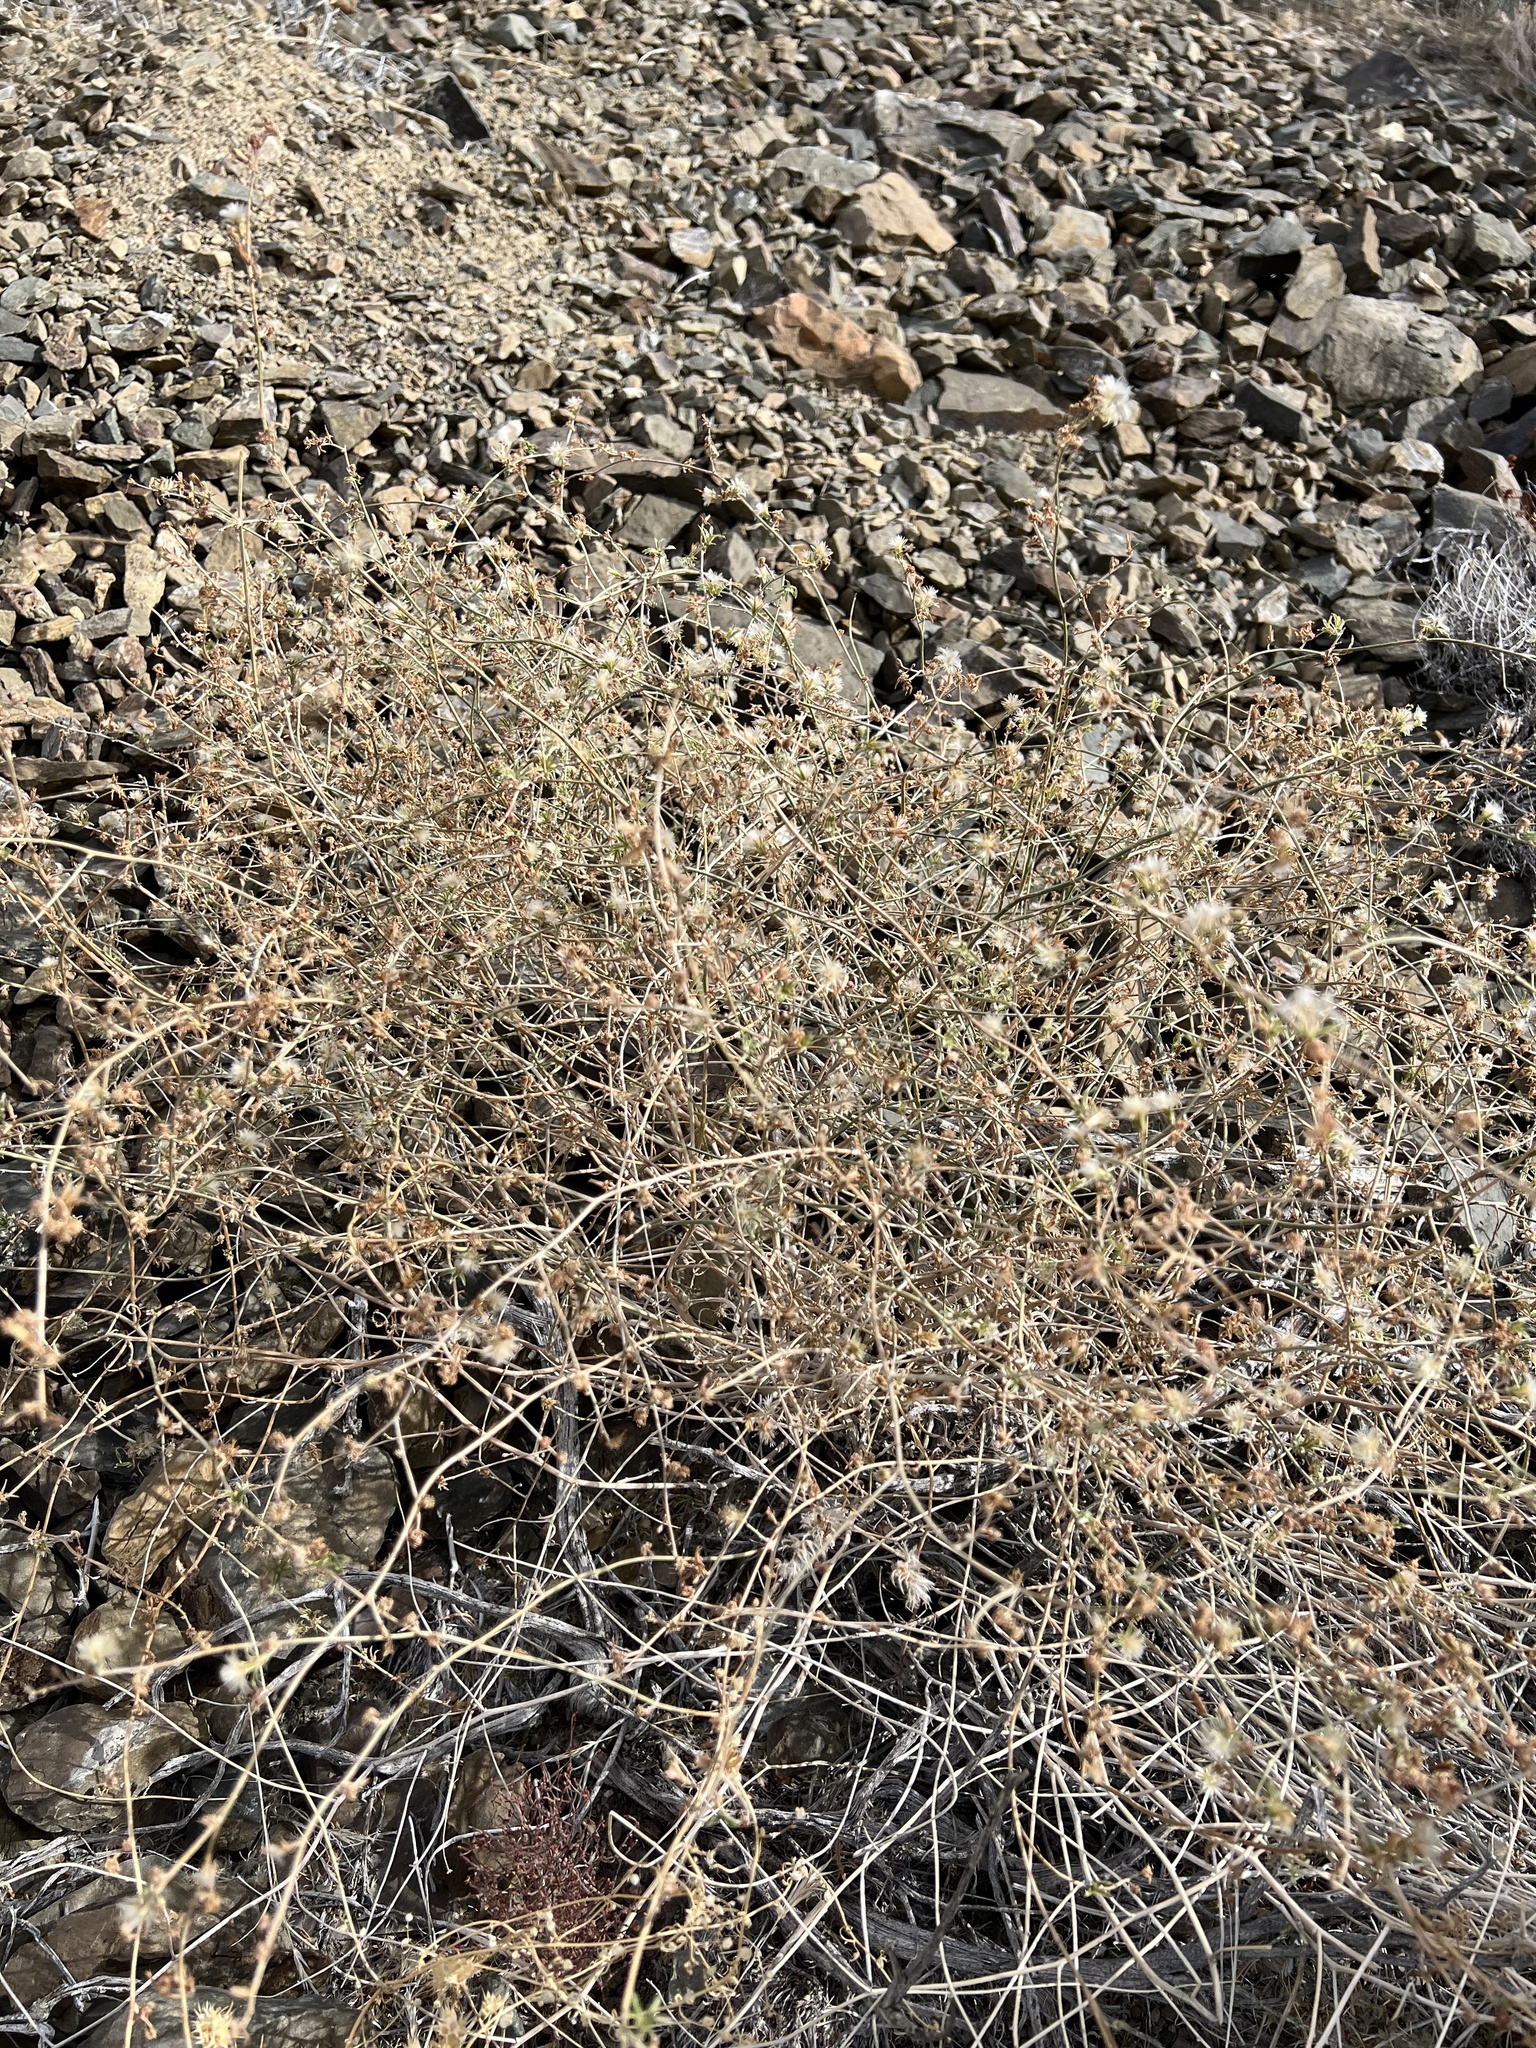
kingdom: Plantae
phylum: Tracheophyta
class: Magnoliopsida
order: Asterales
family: Asteraceae
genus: Stephanomeria
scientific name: Stephanomeria pauciflora
